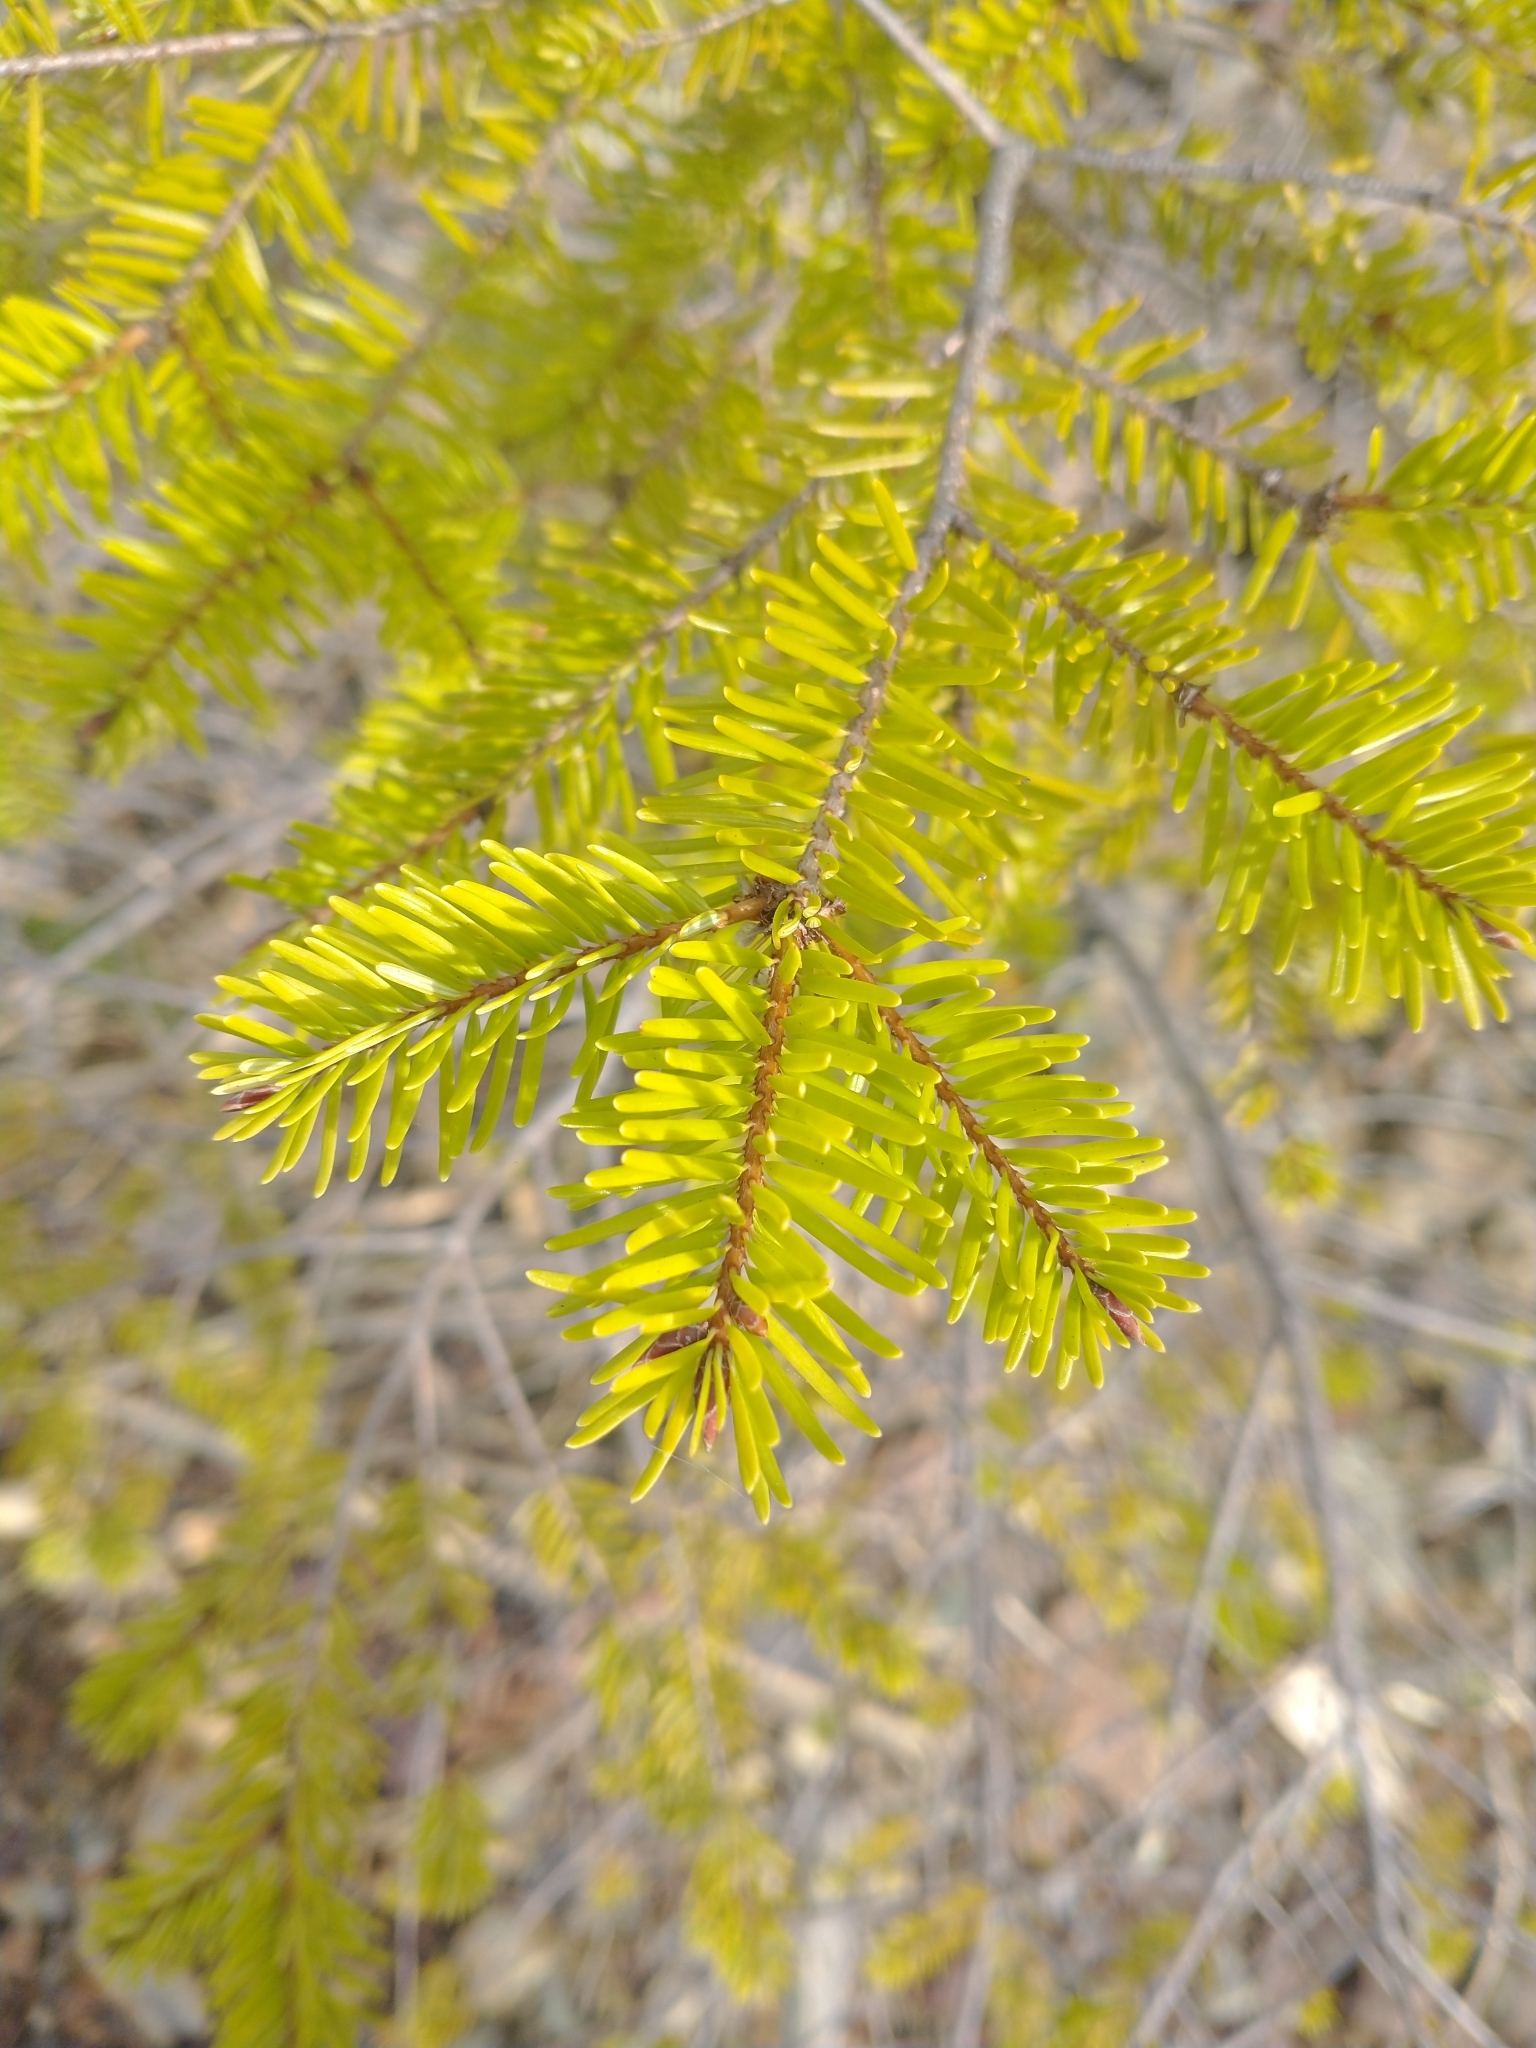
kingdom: Plantae
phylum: Tracheophyta
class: Pinopsida
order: Pinales
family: Pinaceae
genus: Pseudotsuga
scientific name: Pseudotsuga menziesii
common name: Douglas fir
